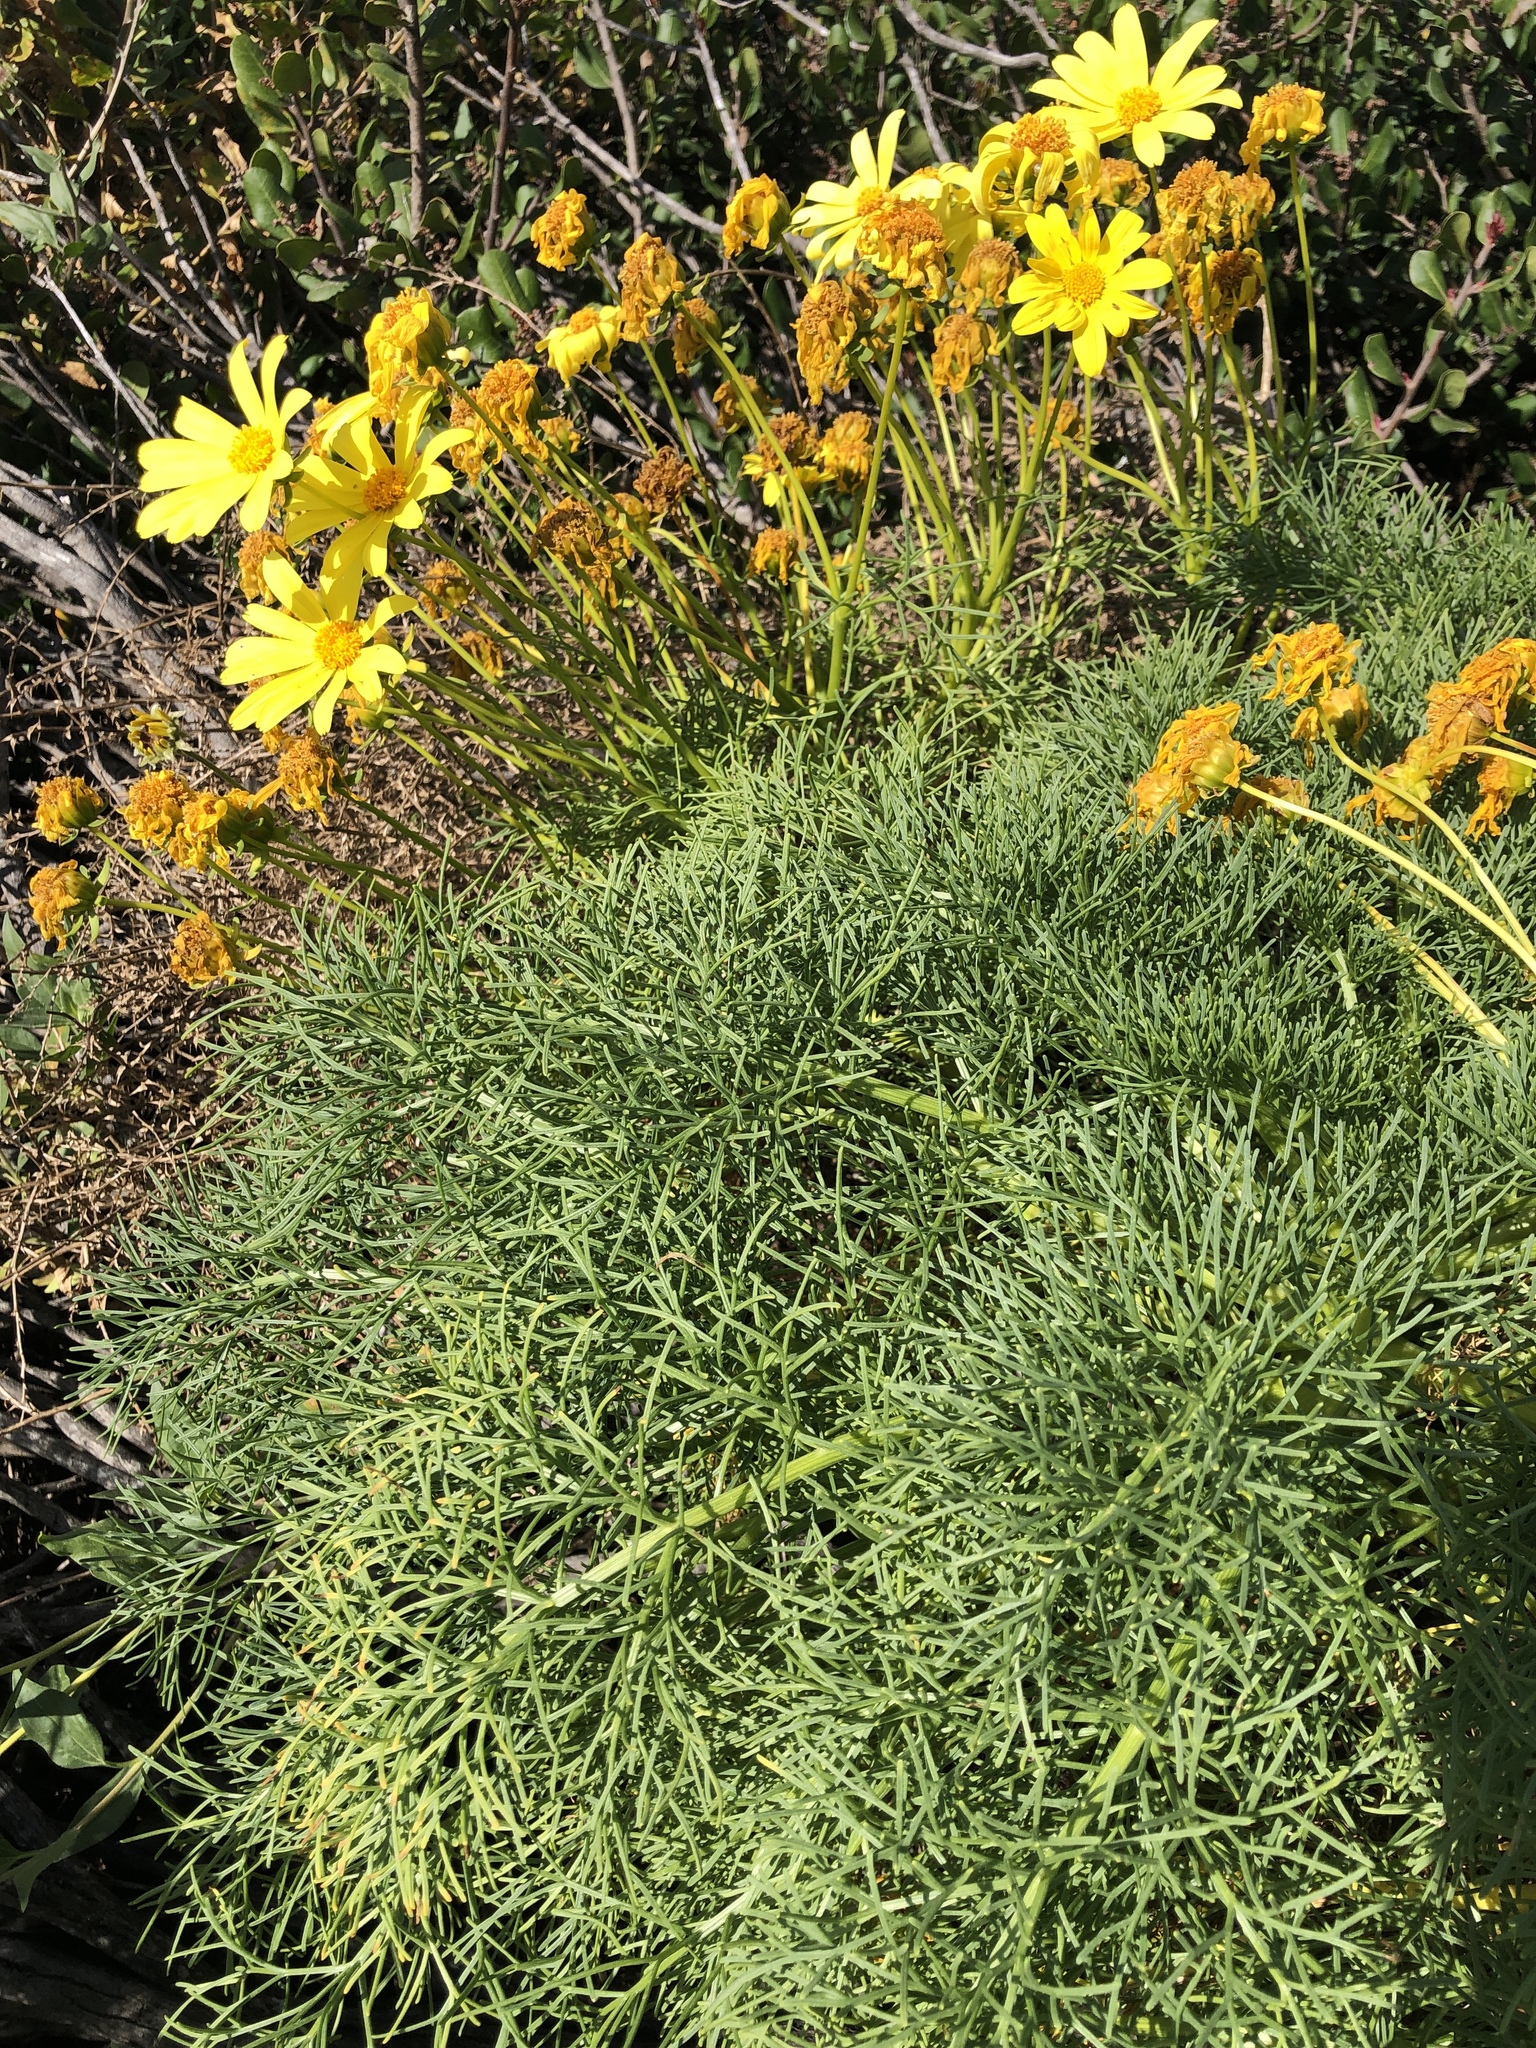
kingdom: Plantae
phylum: Tracheophyta
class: Magnoliopsida
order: Asterales
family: Asteraceae
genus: Coreopsis
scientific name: Coreopsis gigantea
